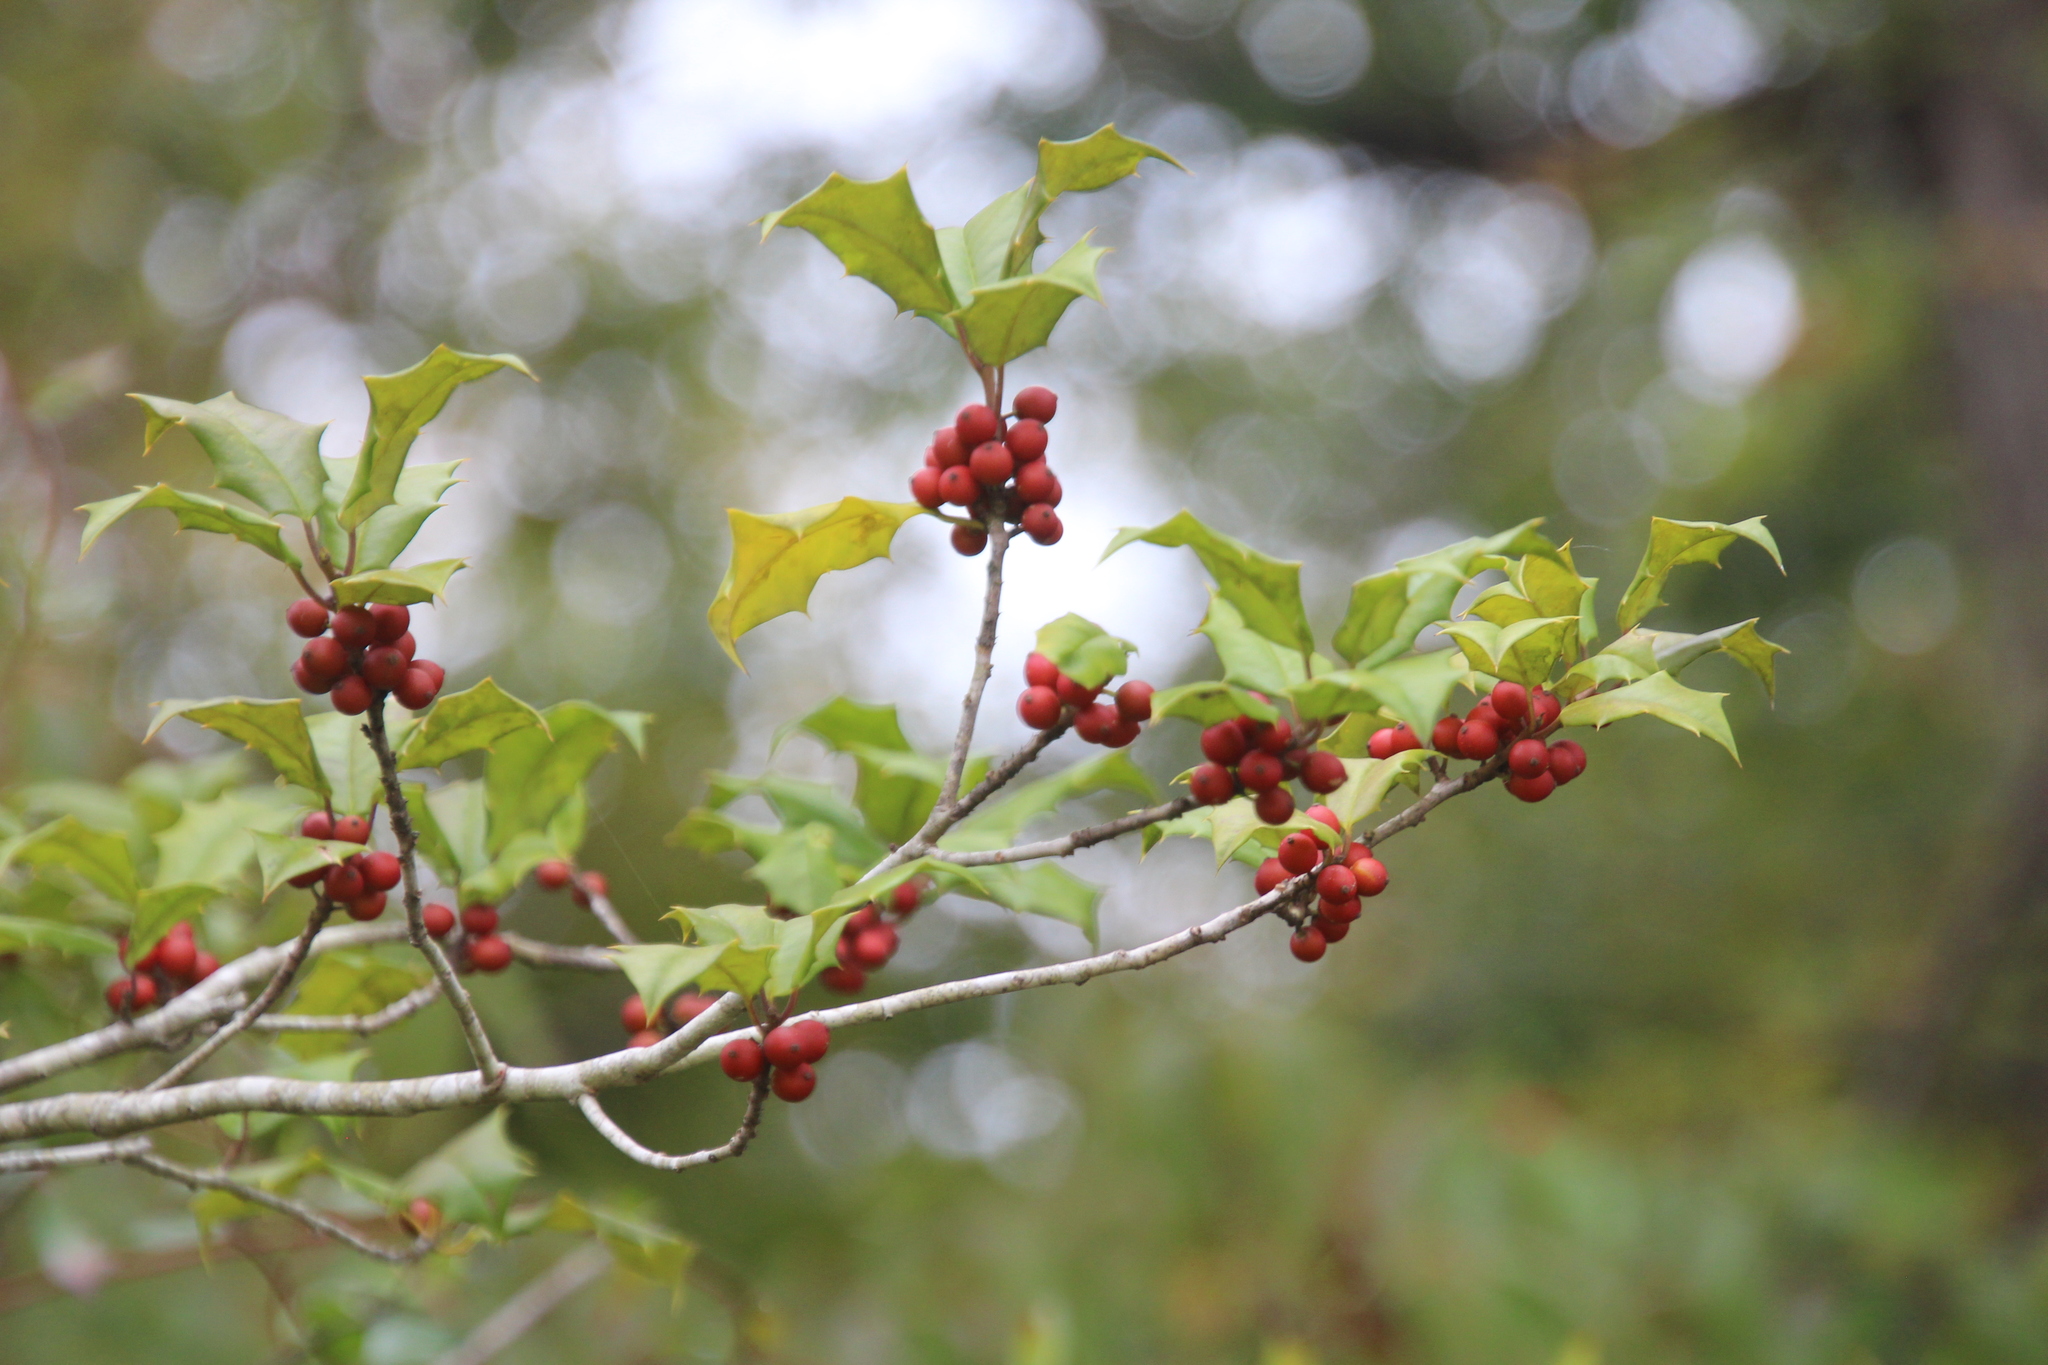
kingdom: Plantae
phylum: Tracheophyta
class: Magnoliopsida
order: Aquifoliales
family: Aquifoliaceae
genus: Ilex
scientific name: Ilex opaca
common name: American holly
